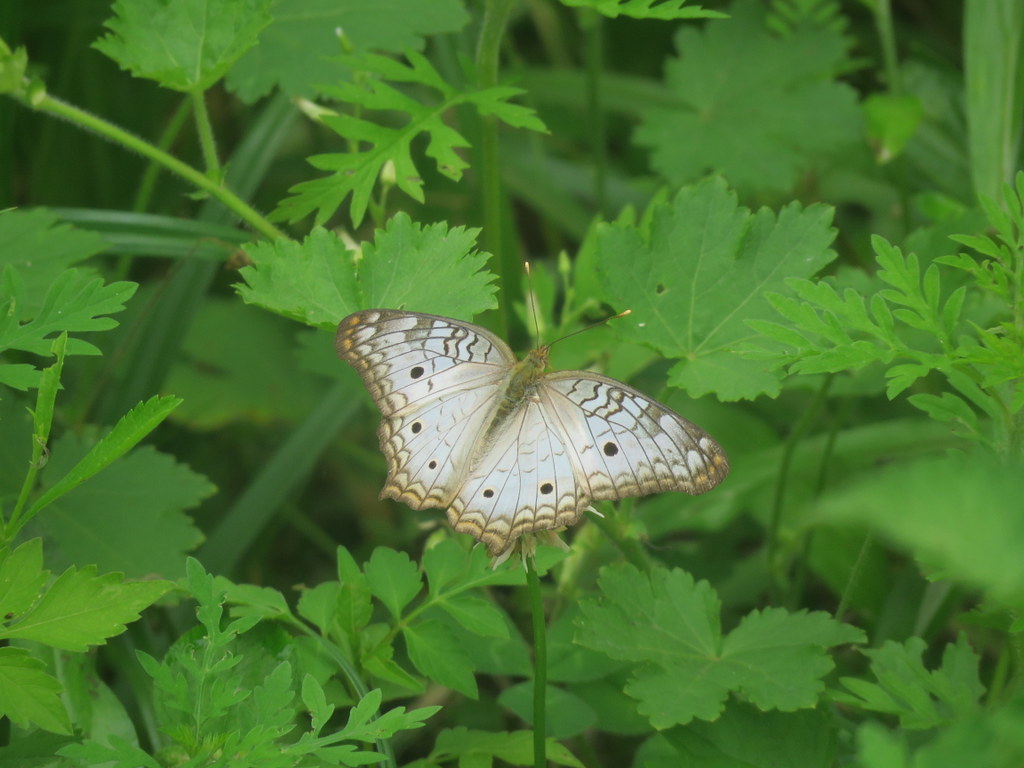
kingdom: Animalia
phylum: Arthropoda
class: Insecta
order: Lepidoptera
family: Nymphalidae
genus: Anartia
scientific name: Anartia jatrophae
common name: White peacock
